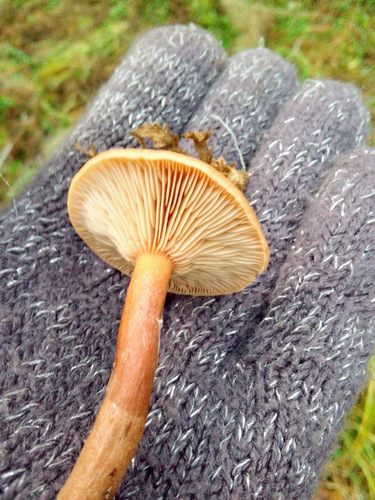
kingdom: Fungi
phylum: Basidiomycota
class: Agaricomycetes
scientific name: Agaricomycetes
